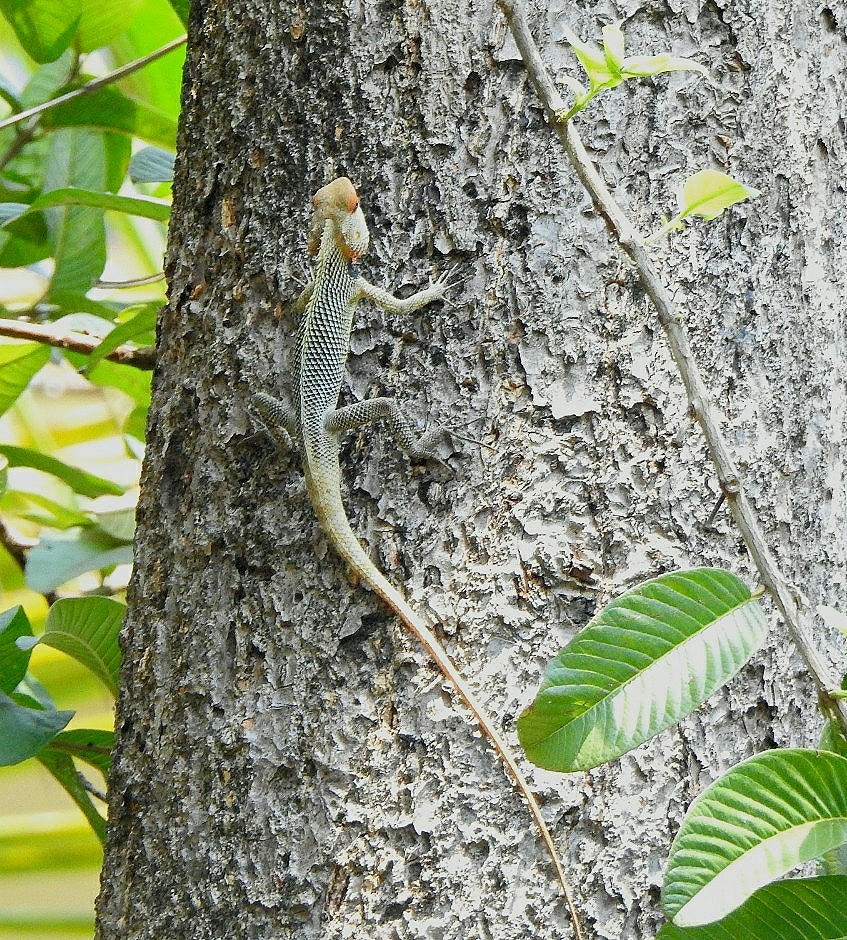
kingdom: Animalia
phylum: Chordata
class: Squamata
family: Agamidae
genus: Calotes
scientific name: Calotes versicolor
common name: Oriental garden lizard
